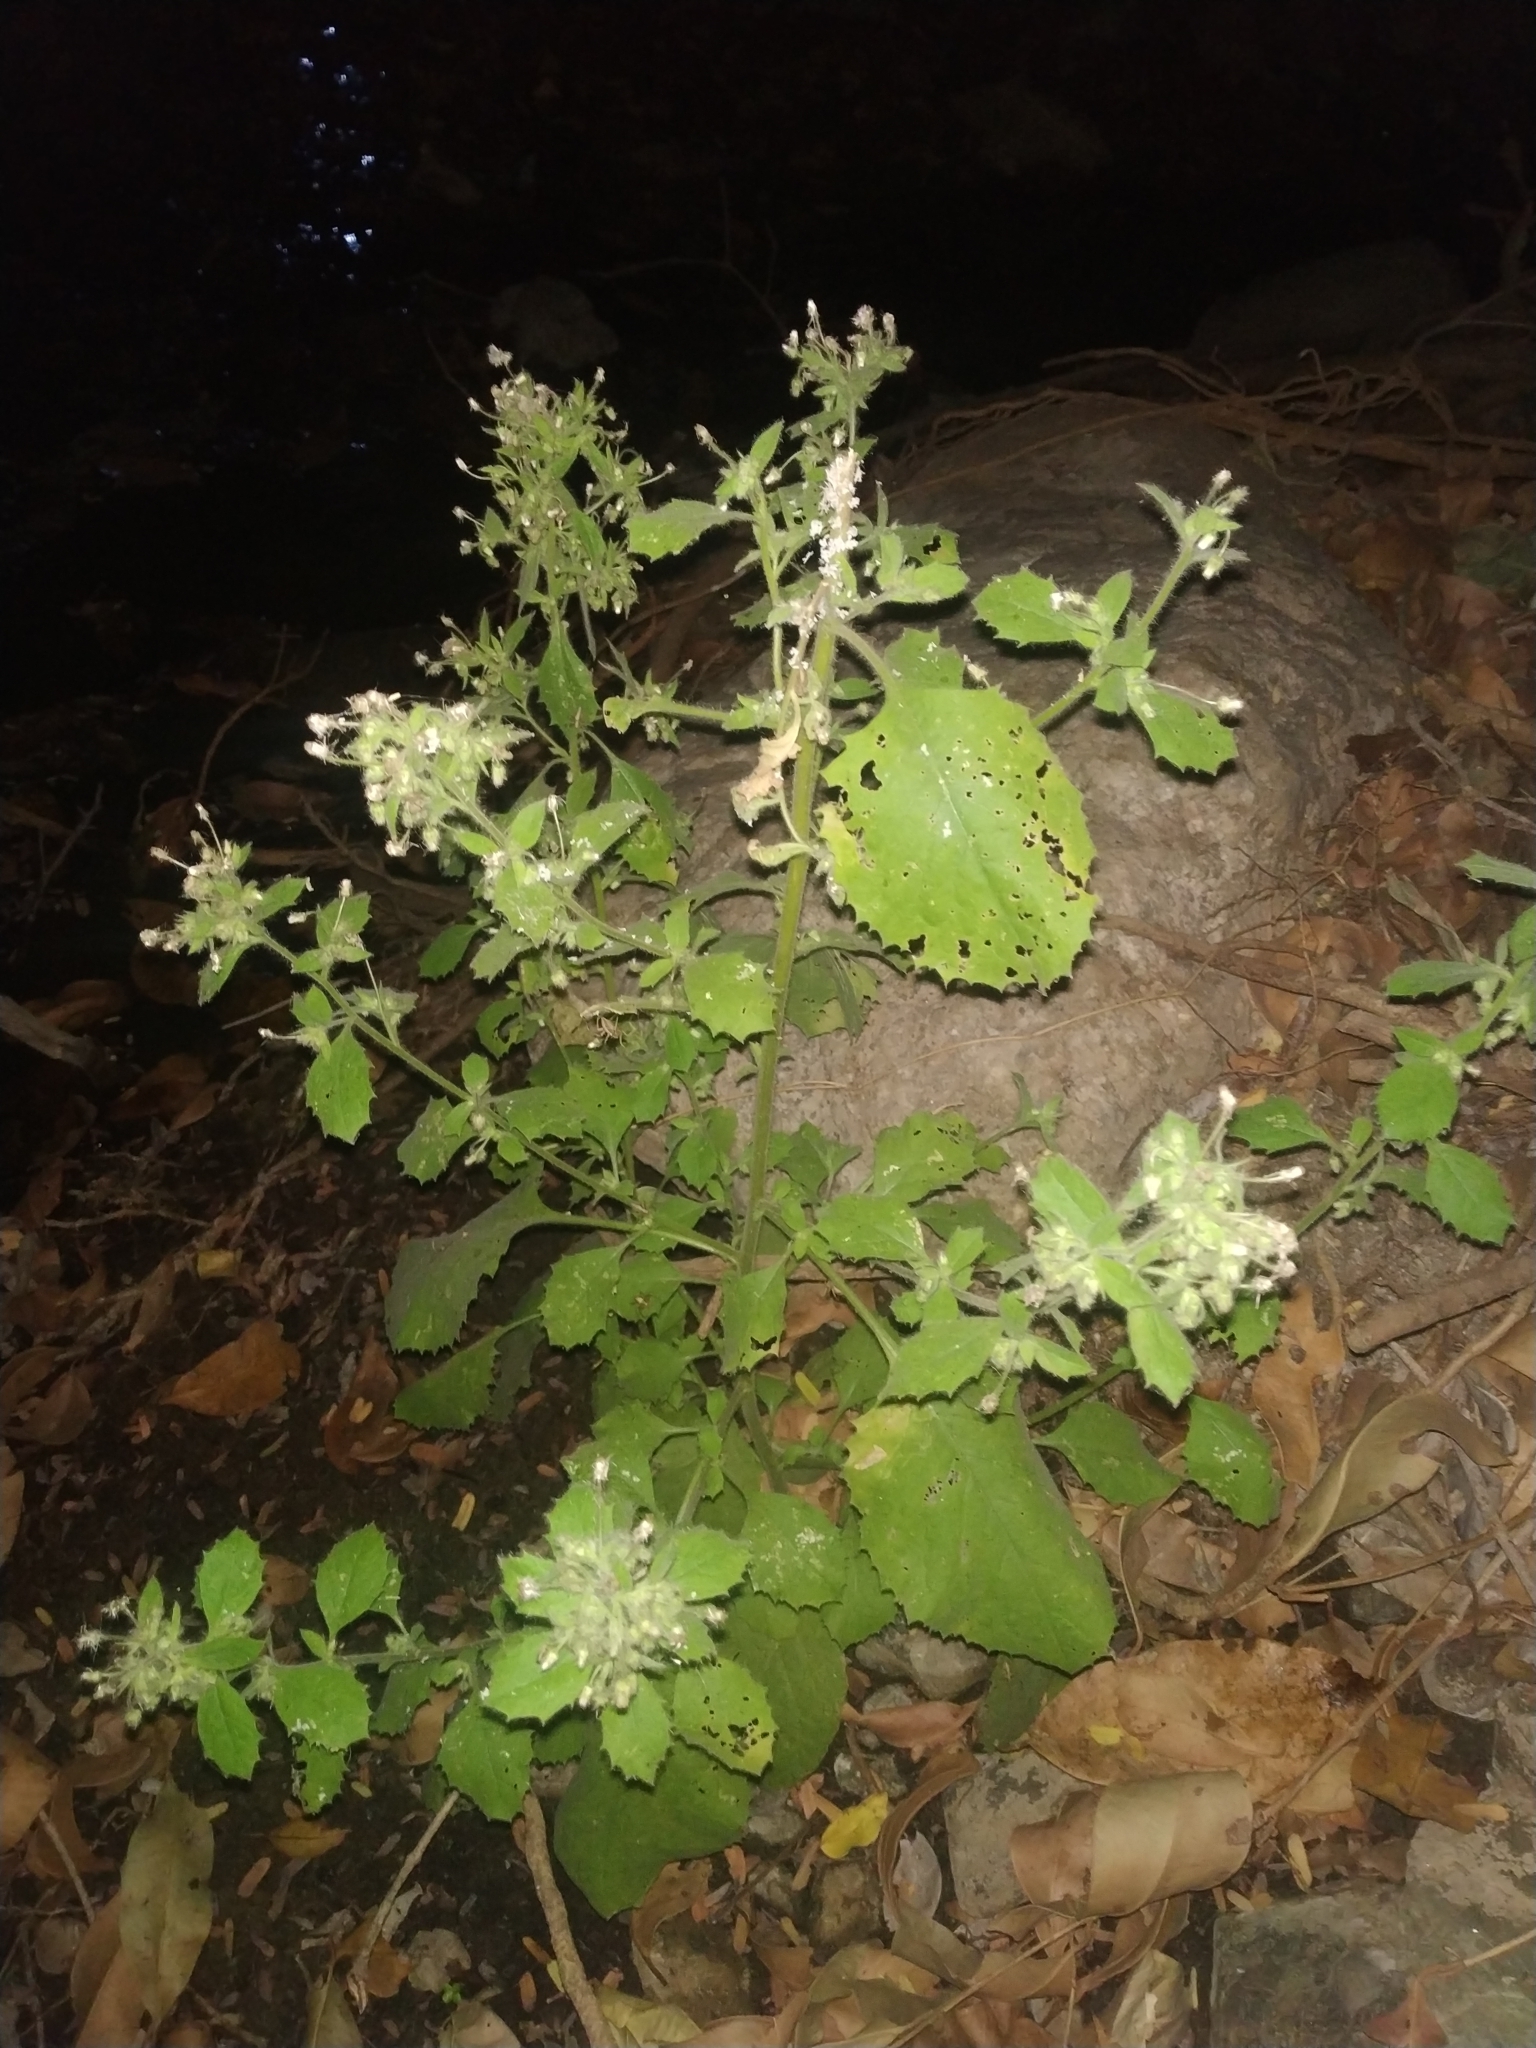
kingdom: Plantae
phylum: Tracheophyta
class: Magnoliopsida
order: Asterales
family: Asteraceae
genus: Blumea
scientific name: Blumea axillaris
